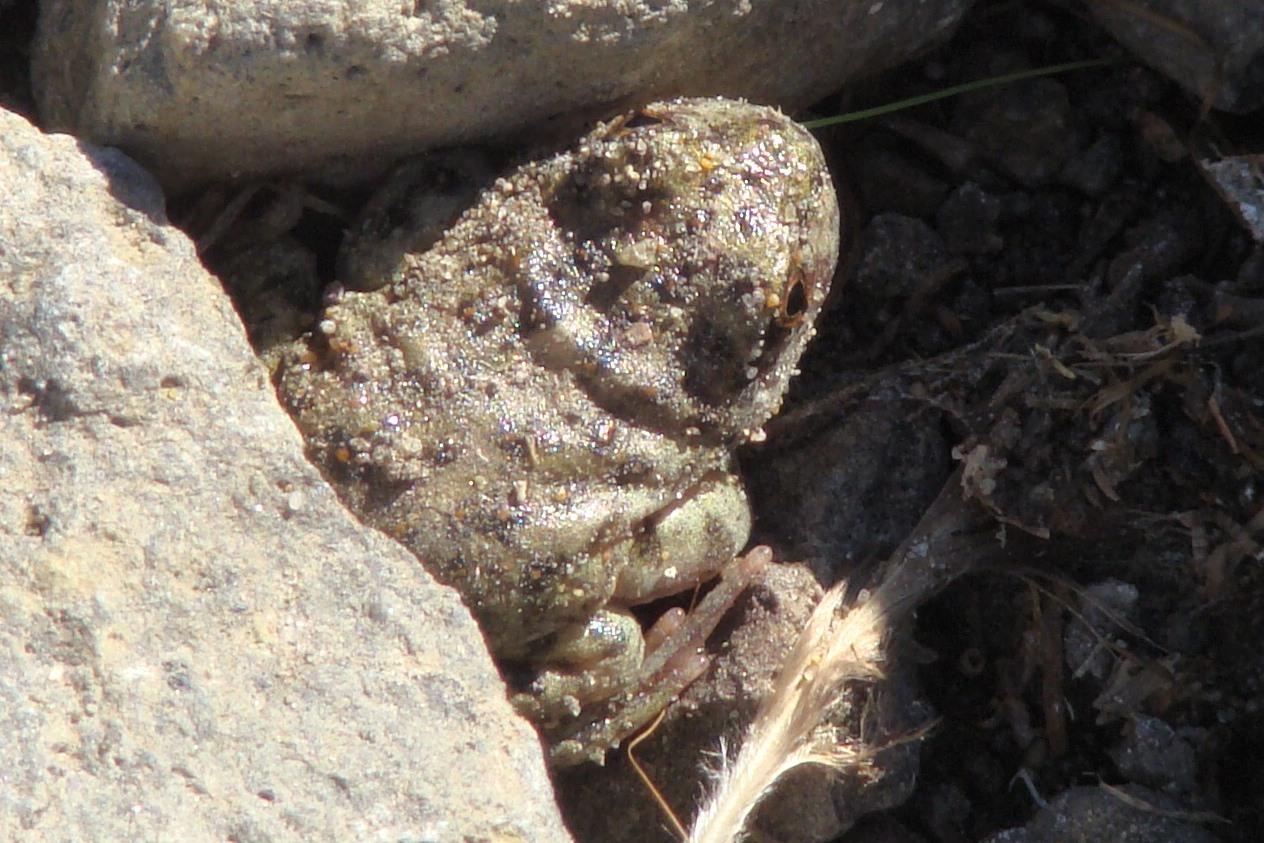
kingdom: Animalia
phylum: Chordata
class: Amphibia
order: Anura
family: Batrachylidae
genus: Atelognathus
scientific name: Atelognathus reverberii
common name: Laguna raimunda frog
